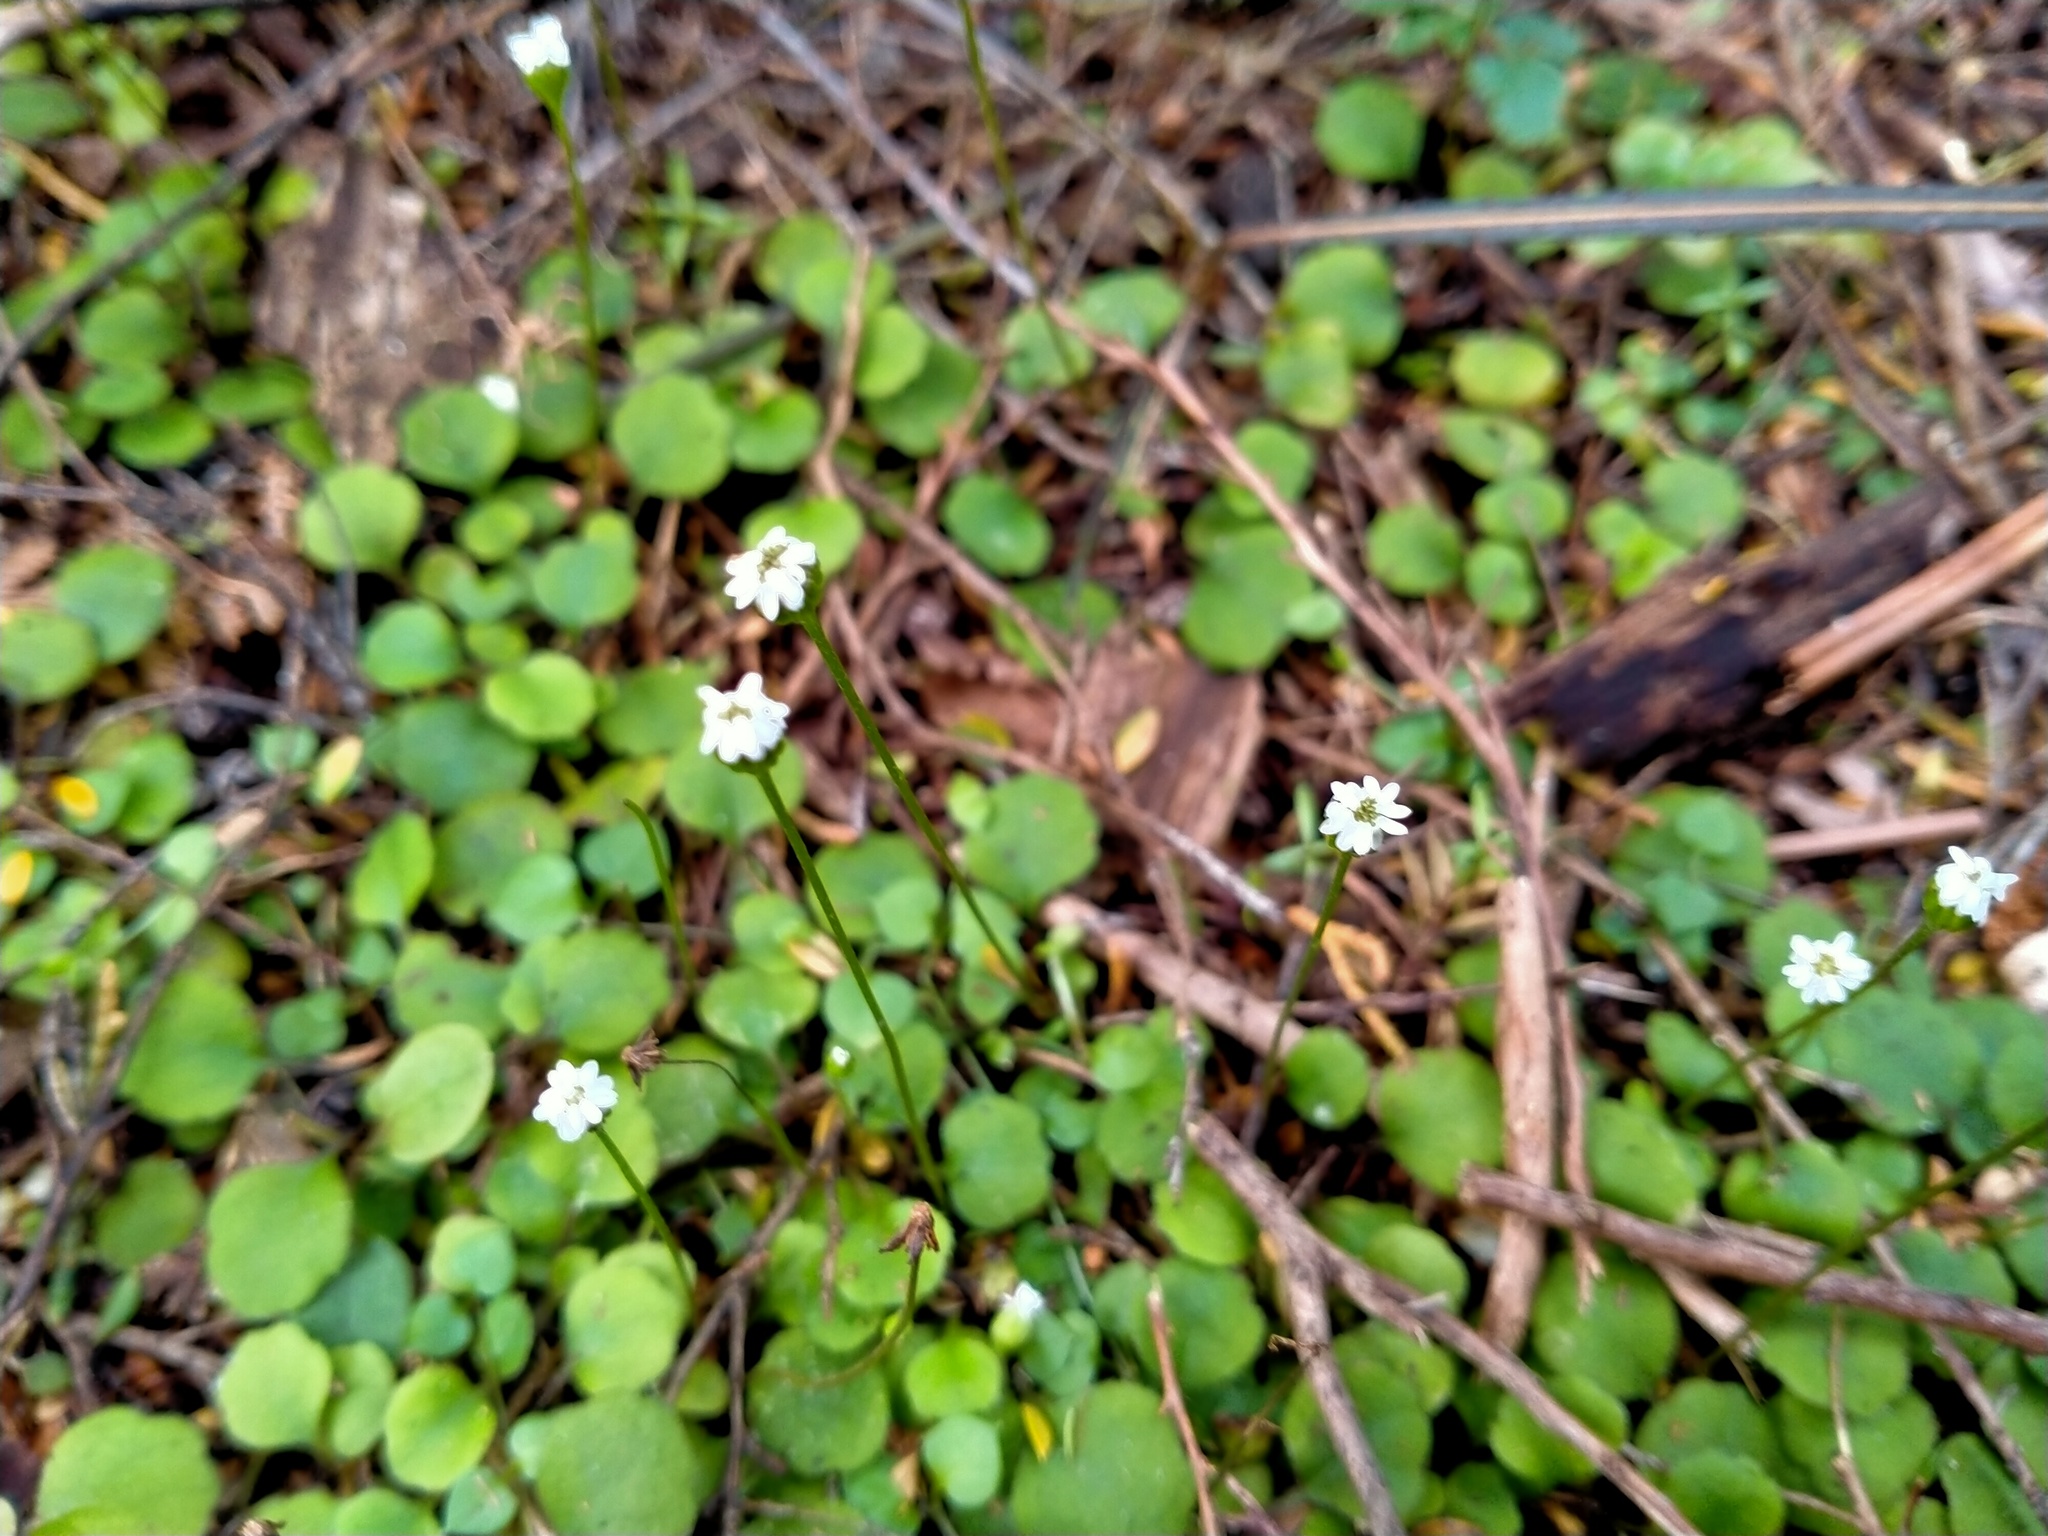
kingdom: Plantae
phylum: Tracheophyta
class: Magnoliopsida
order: Asterales
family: Asteraceae
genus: Lagenophora
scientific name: Lagenophora strangulata
